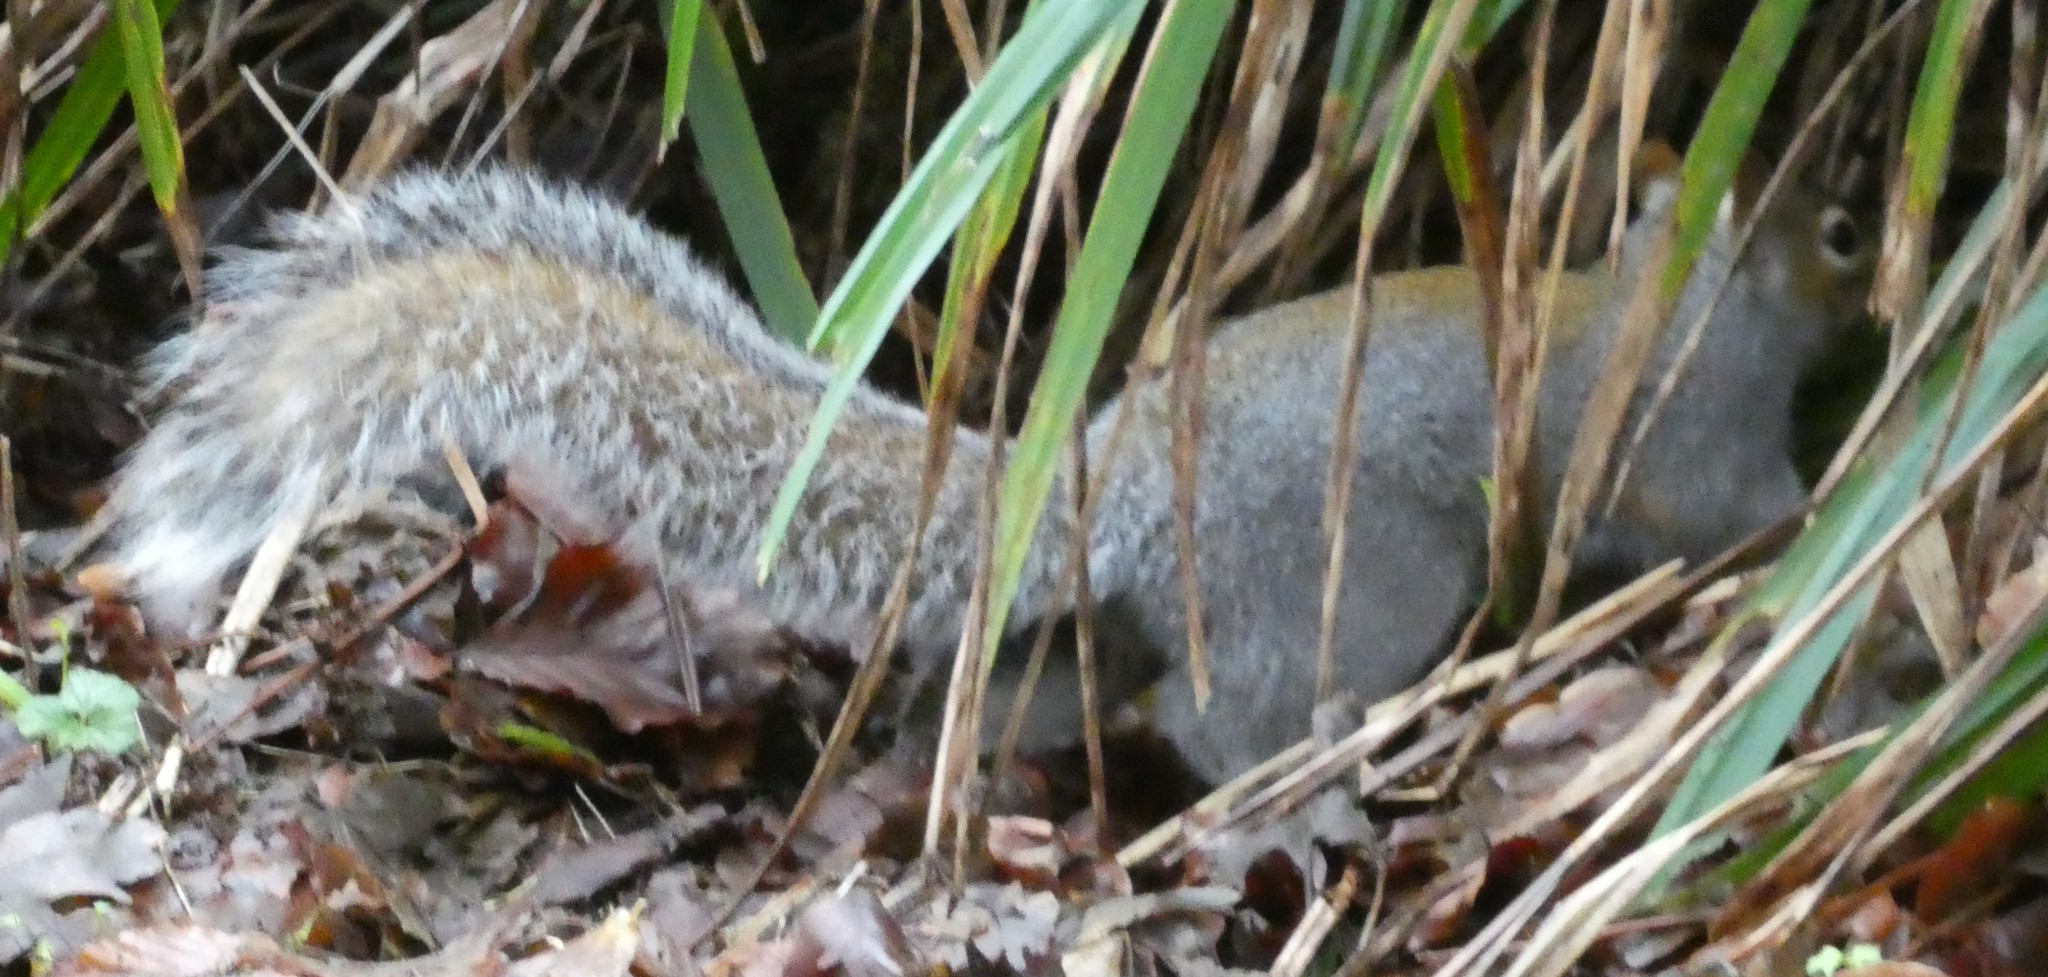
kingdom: Animalia
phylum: Chordata
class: Mammalia
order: Rodentia
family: Sciuridae
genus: Sciurus
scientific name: Sciurus carolinensis
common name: Eastern gray squirrel
